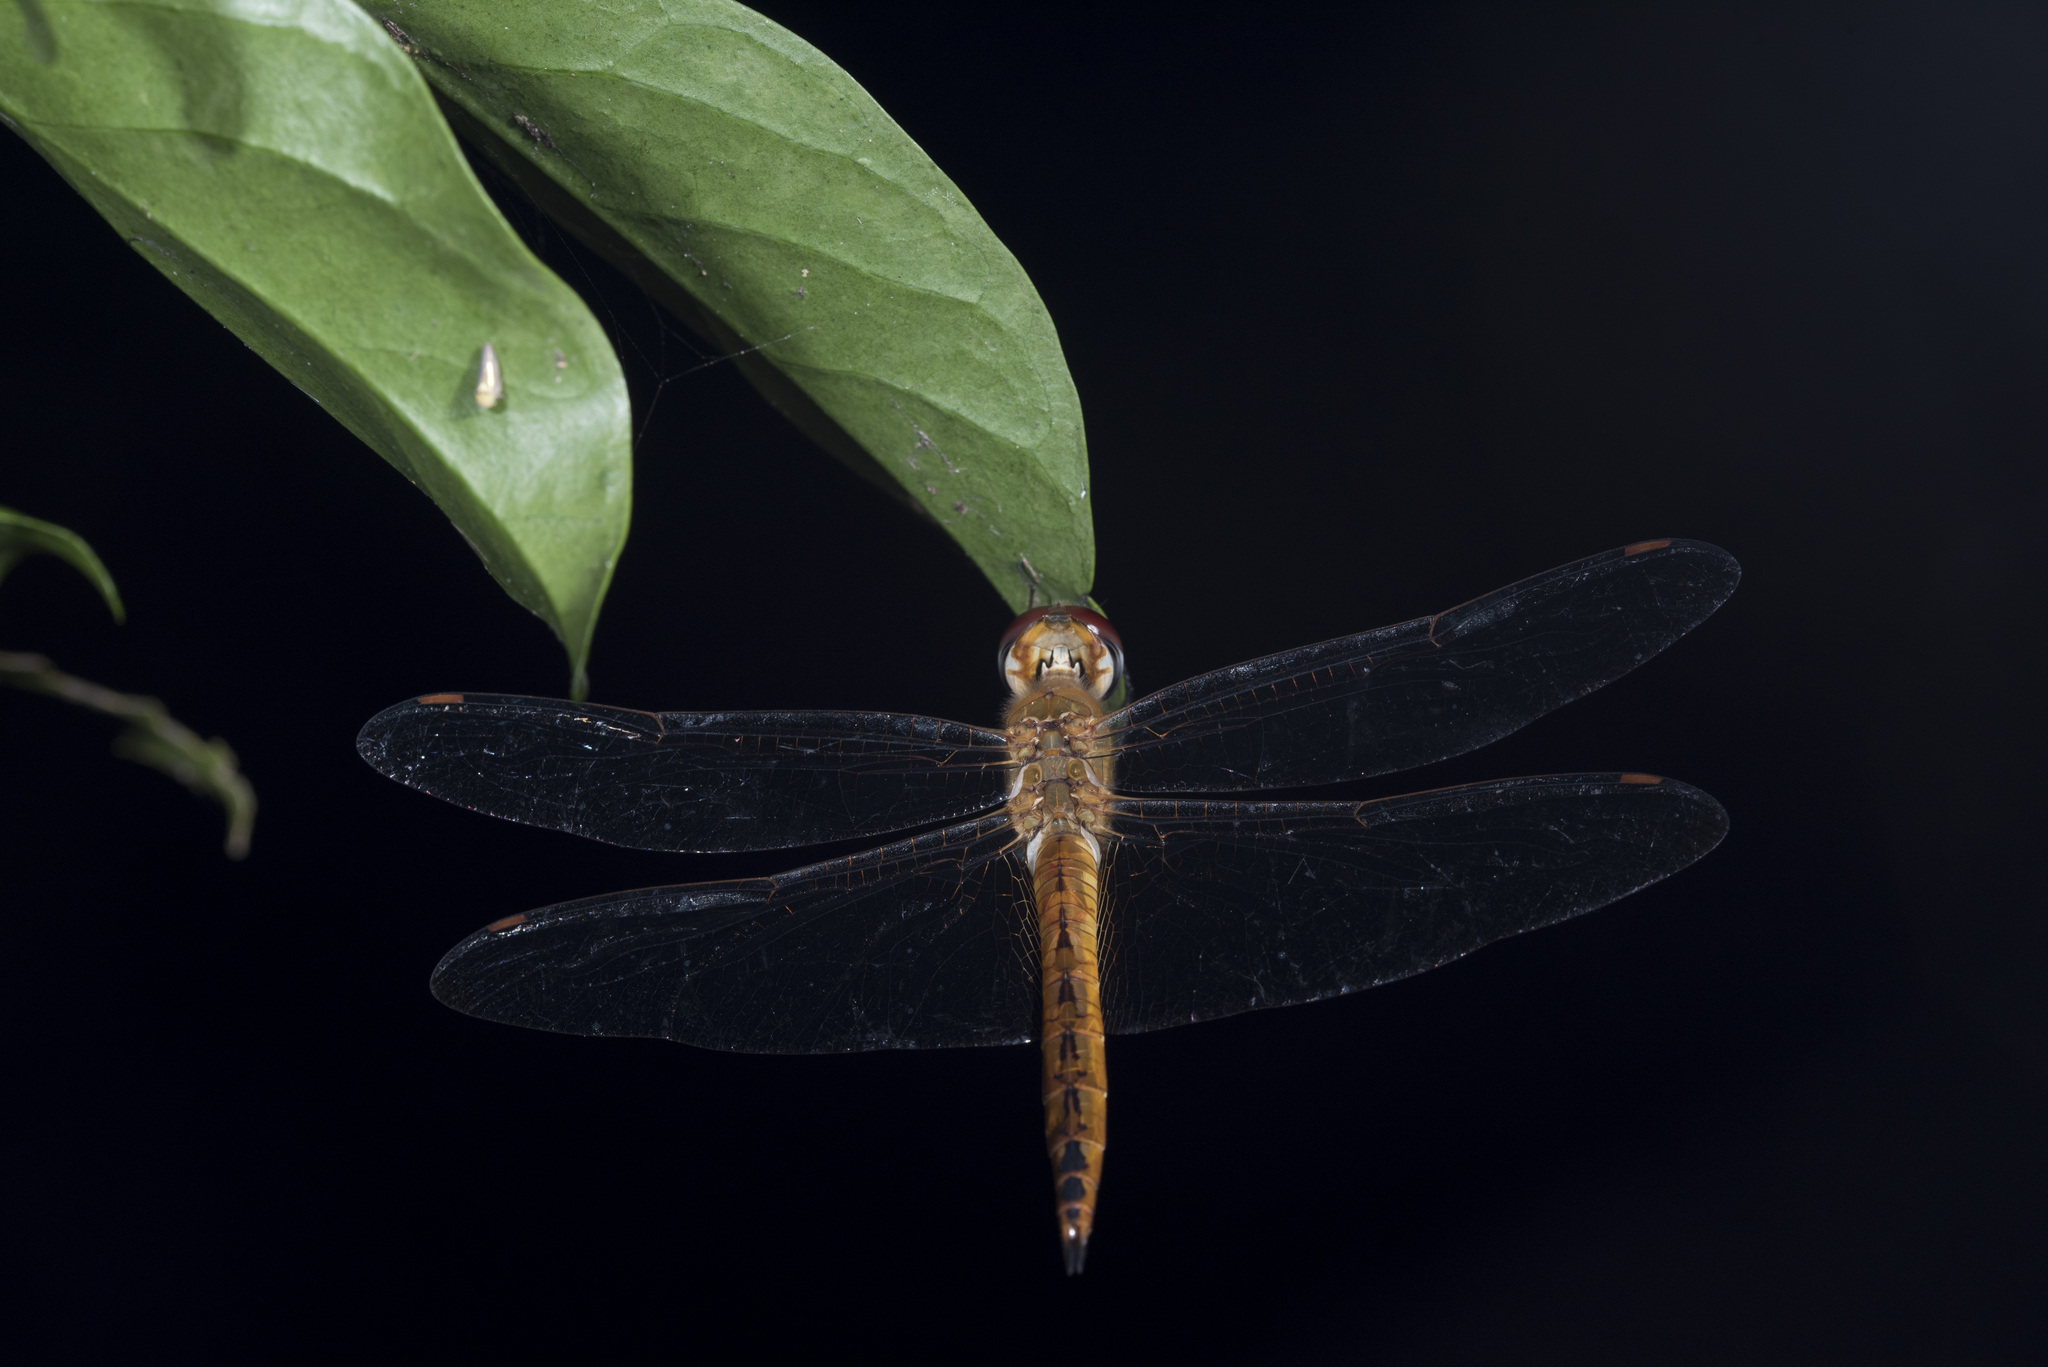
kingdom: Animalia
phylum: Arthropoda
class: Insecta
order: Odonata
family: Libellulidae
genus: Pantala
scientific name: Pantala flavescens
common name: Wandering glider
